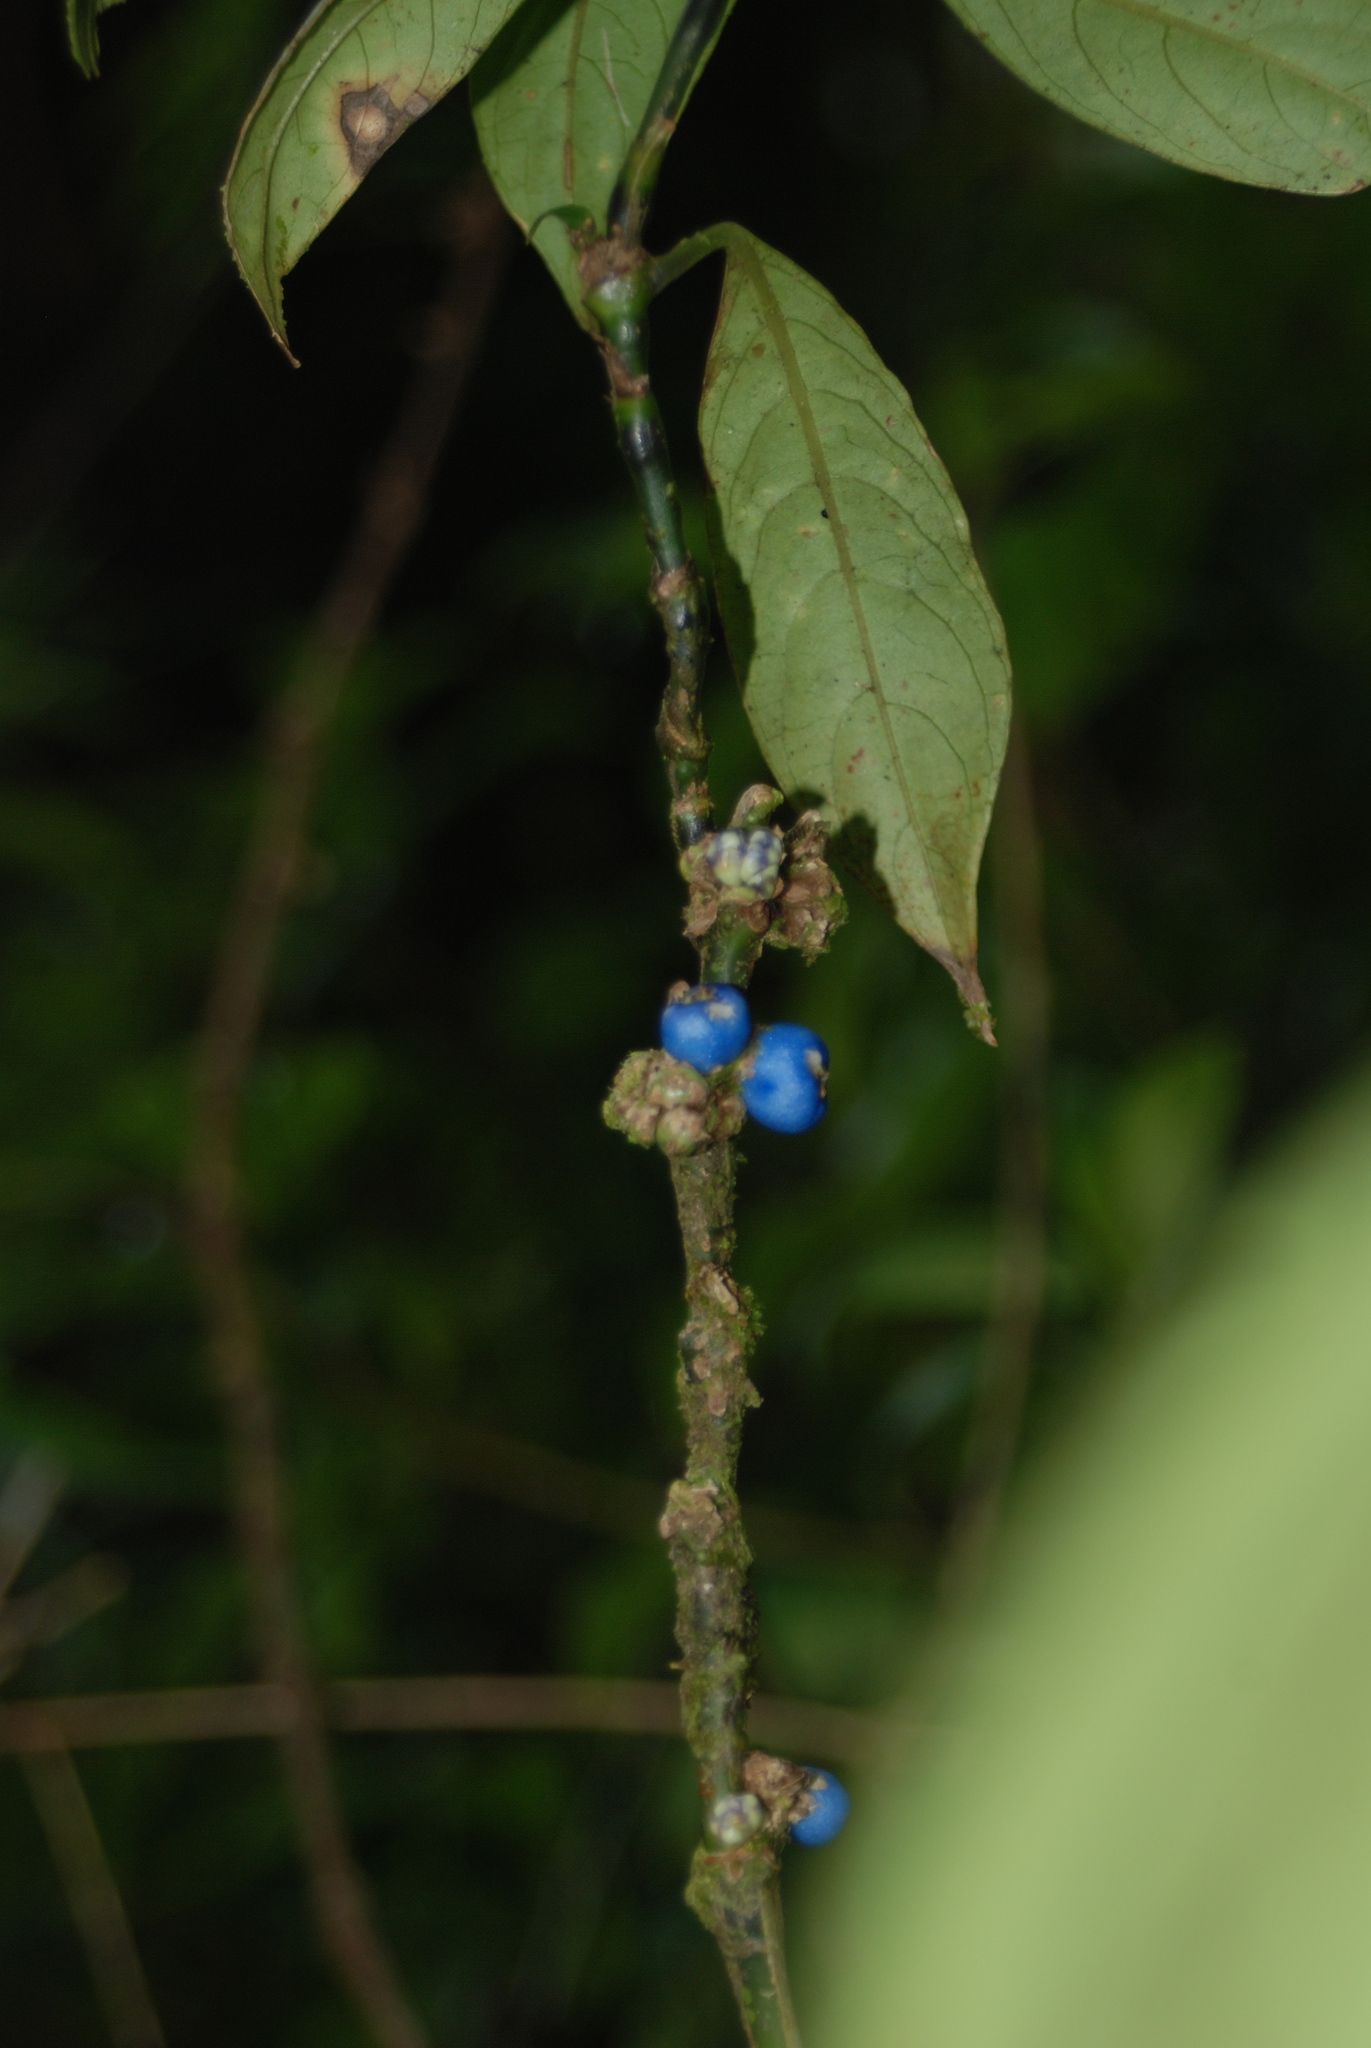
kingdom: Plantae
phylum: Tracheophyta
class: Magnoliopsida
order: Gentianales
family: Rubiaceae
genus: Palicourea
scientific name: Palicourea axillaris
